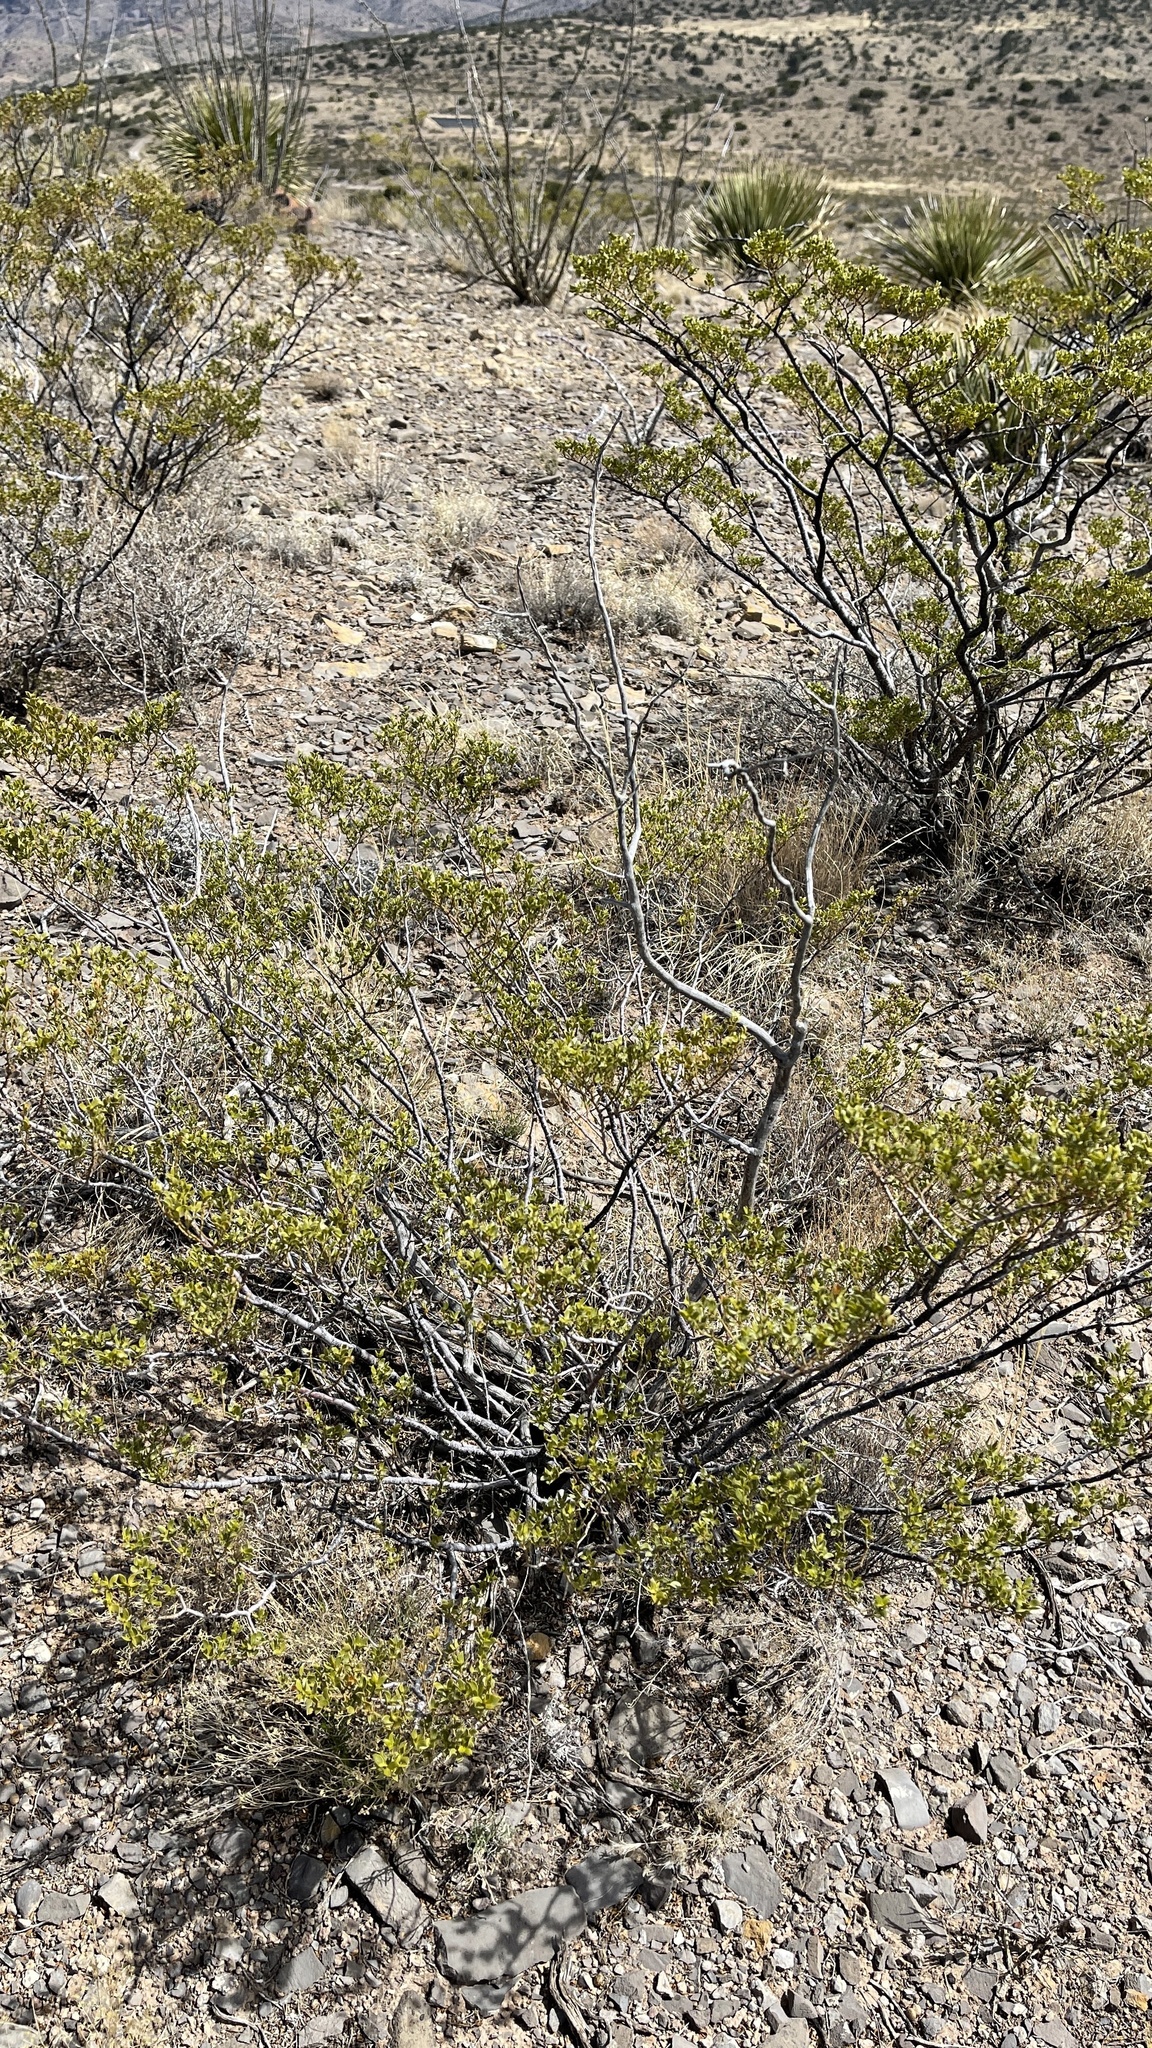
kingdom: Plantae
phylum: Tracheophyta
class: Magnoliopsida
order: Zygophyllales
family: Zygophyllaceae
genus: Larrea
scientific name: Larrea tridentata
